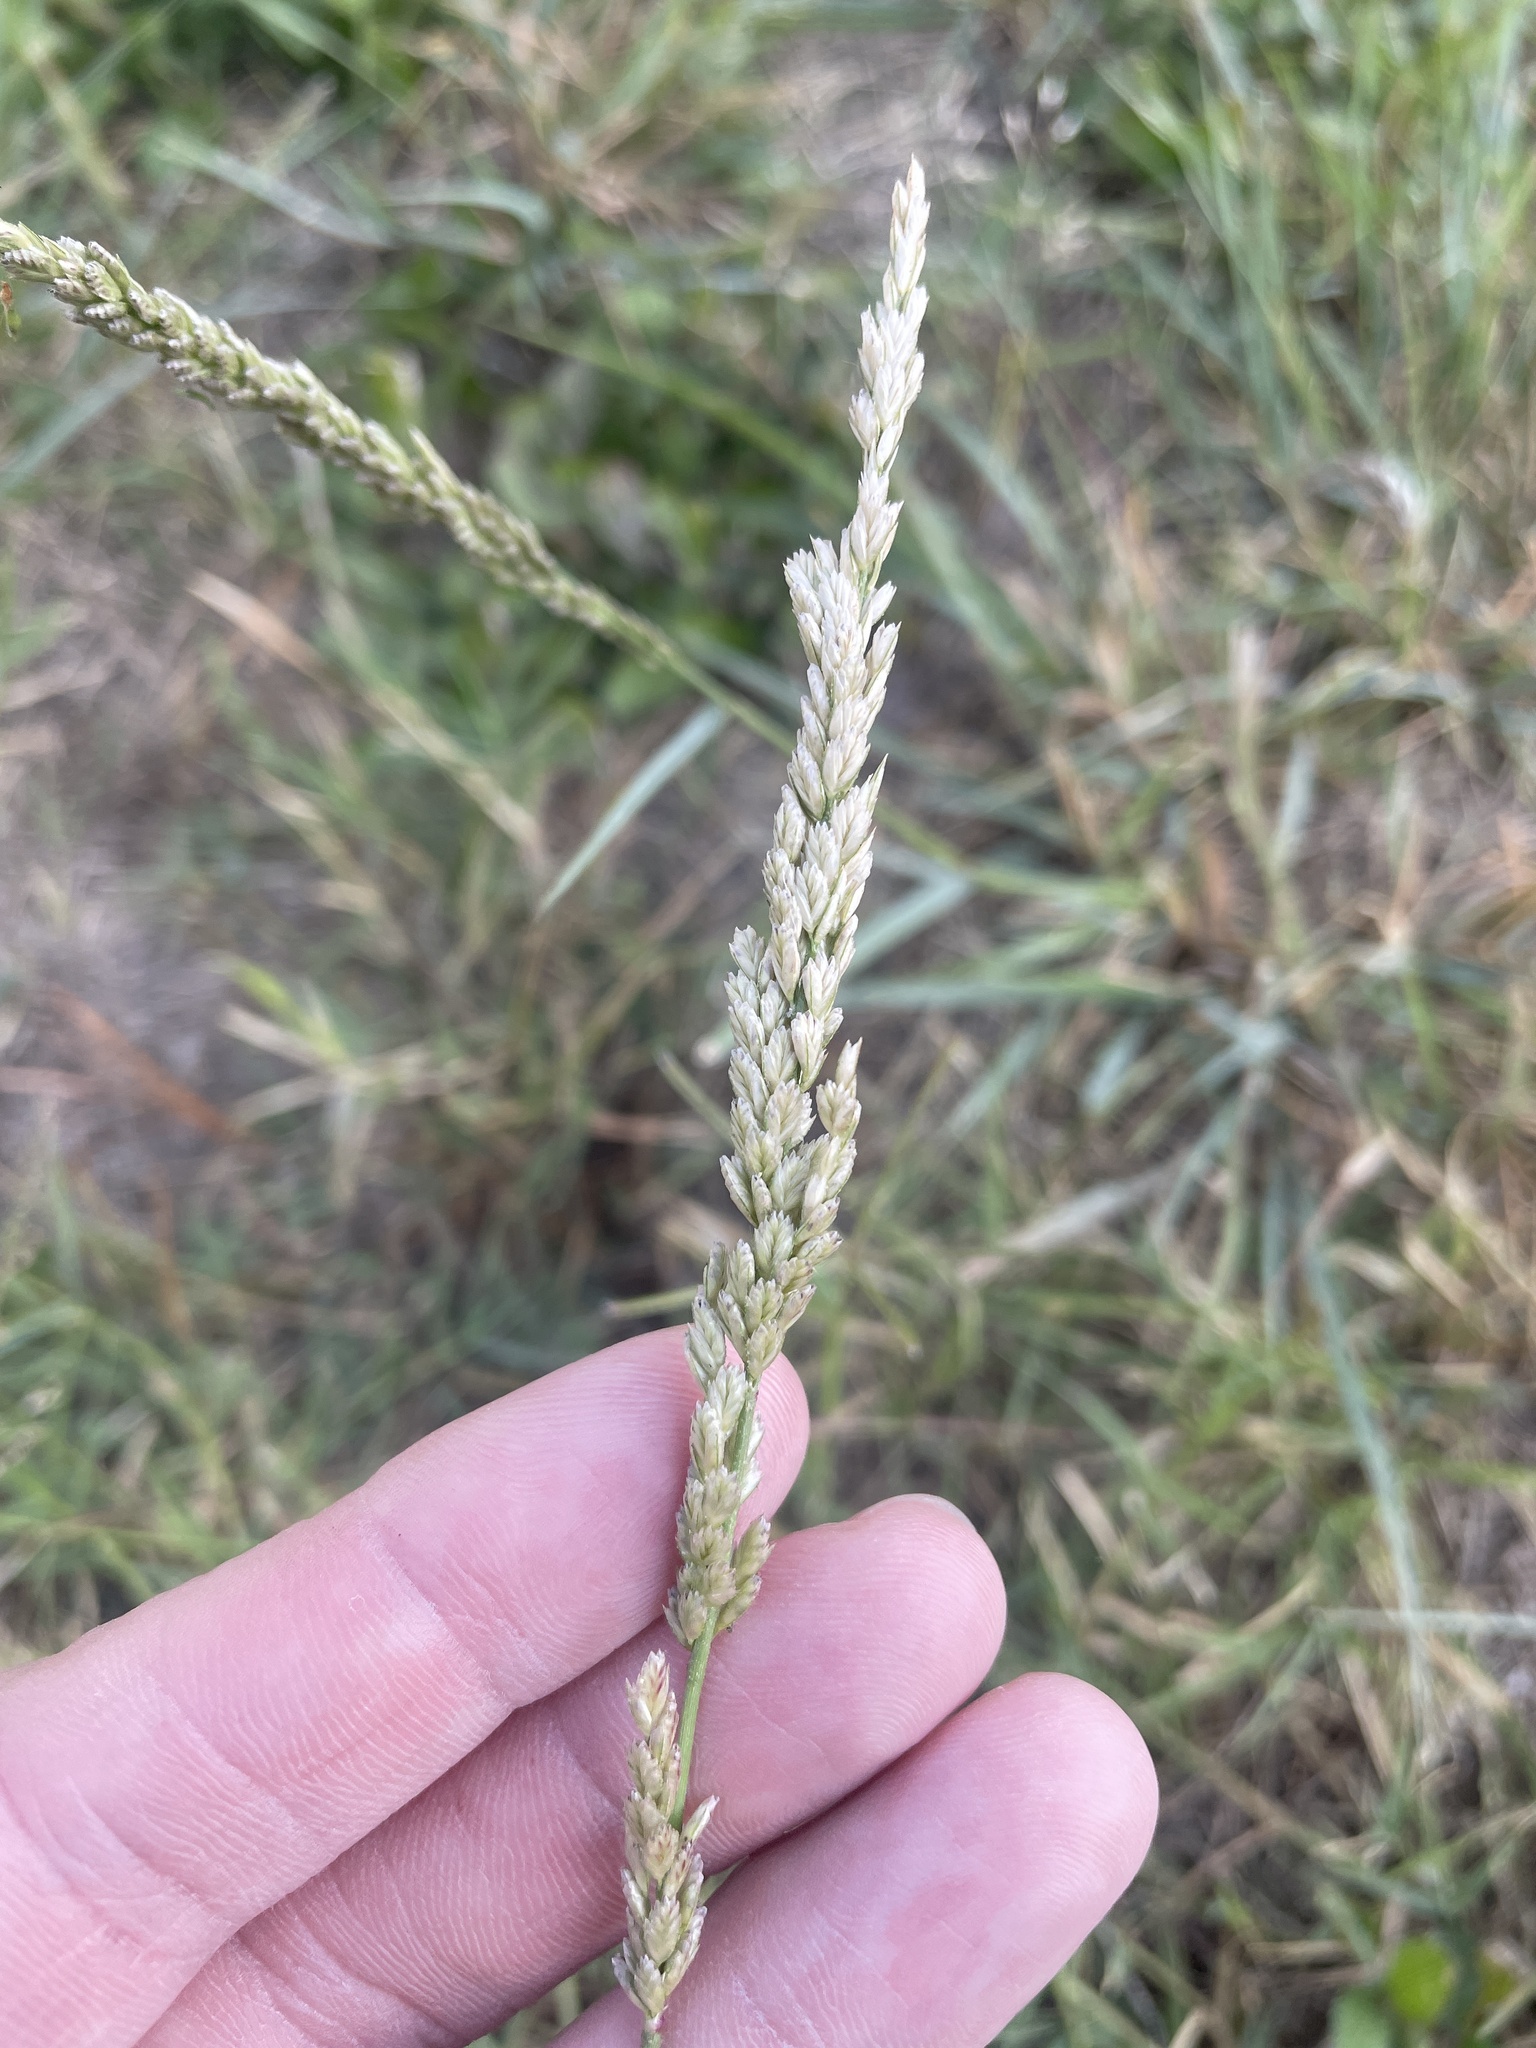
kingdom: Plantae
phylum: Tracheophyta
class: Liliopsida
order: Poales
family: Poaceae
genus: Tridens
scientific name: Tridens albescens
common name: White tridens
